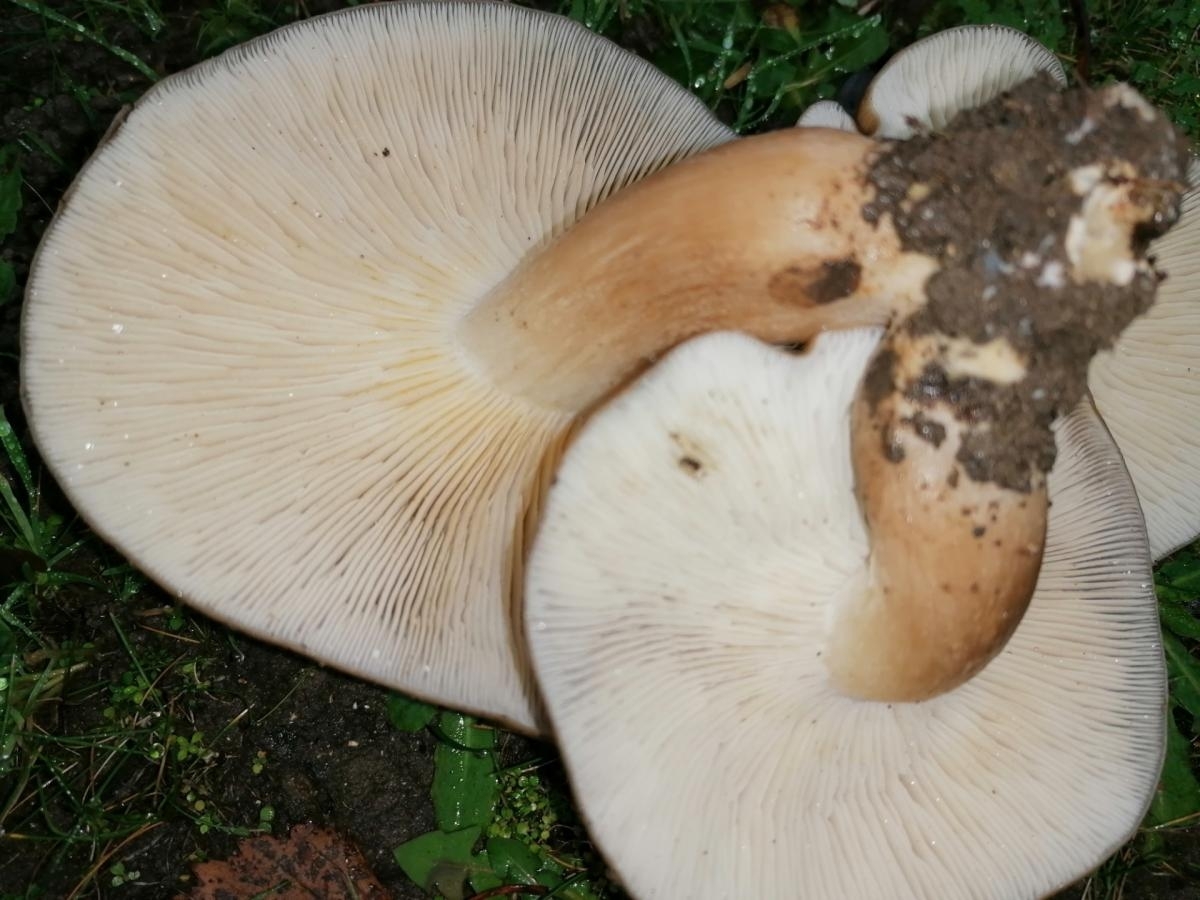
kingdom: Fungi
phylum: Basidiomycota
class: Agaricomycetes
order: Agaricales
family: Lyophyllaceae
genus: Lyophyllum
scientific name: Lyophyllum decastes
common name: Clustered domecap
